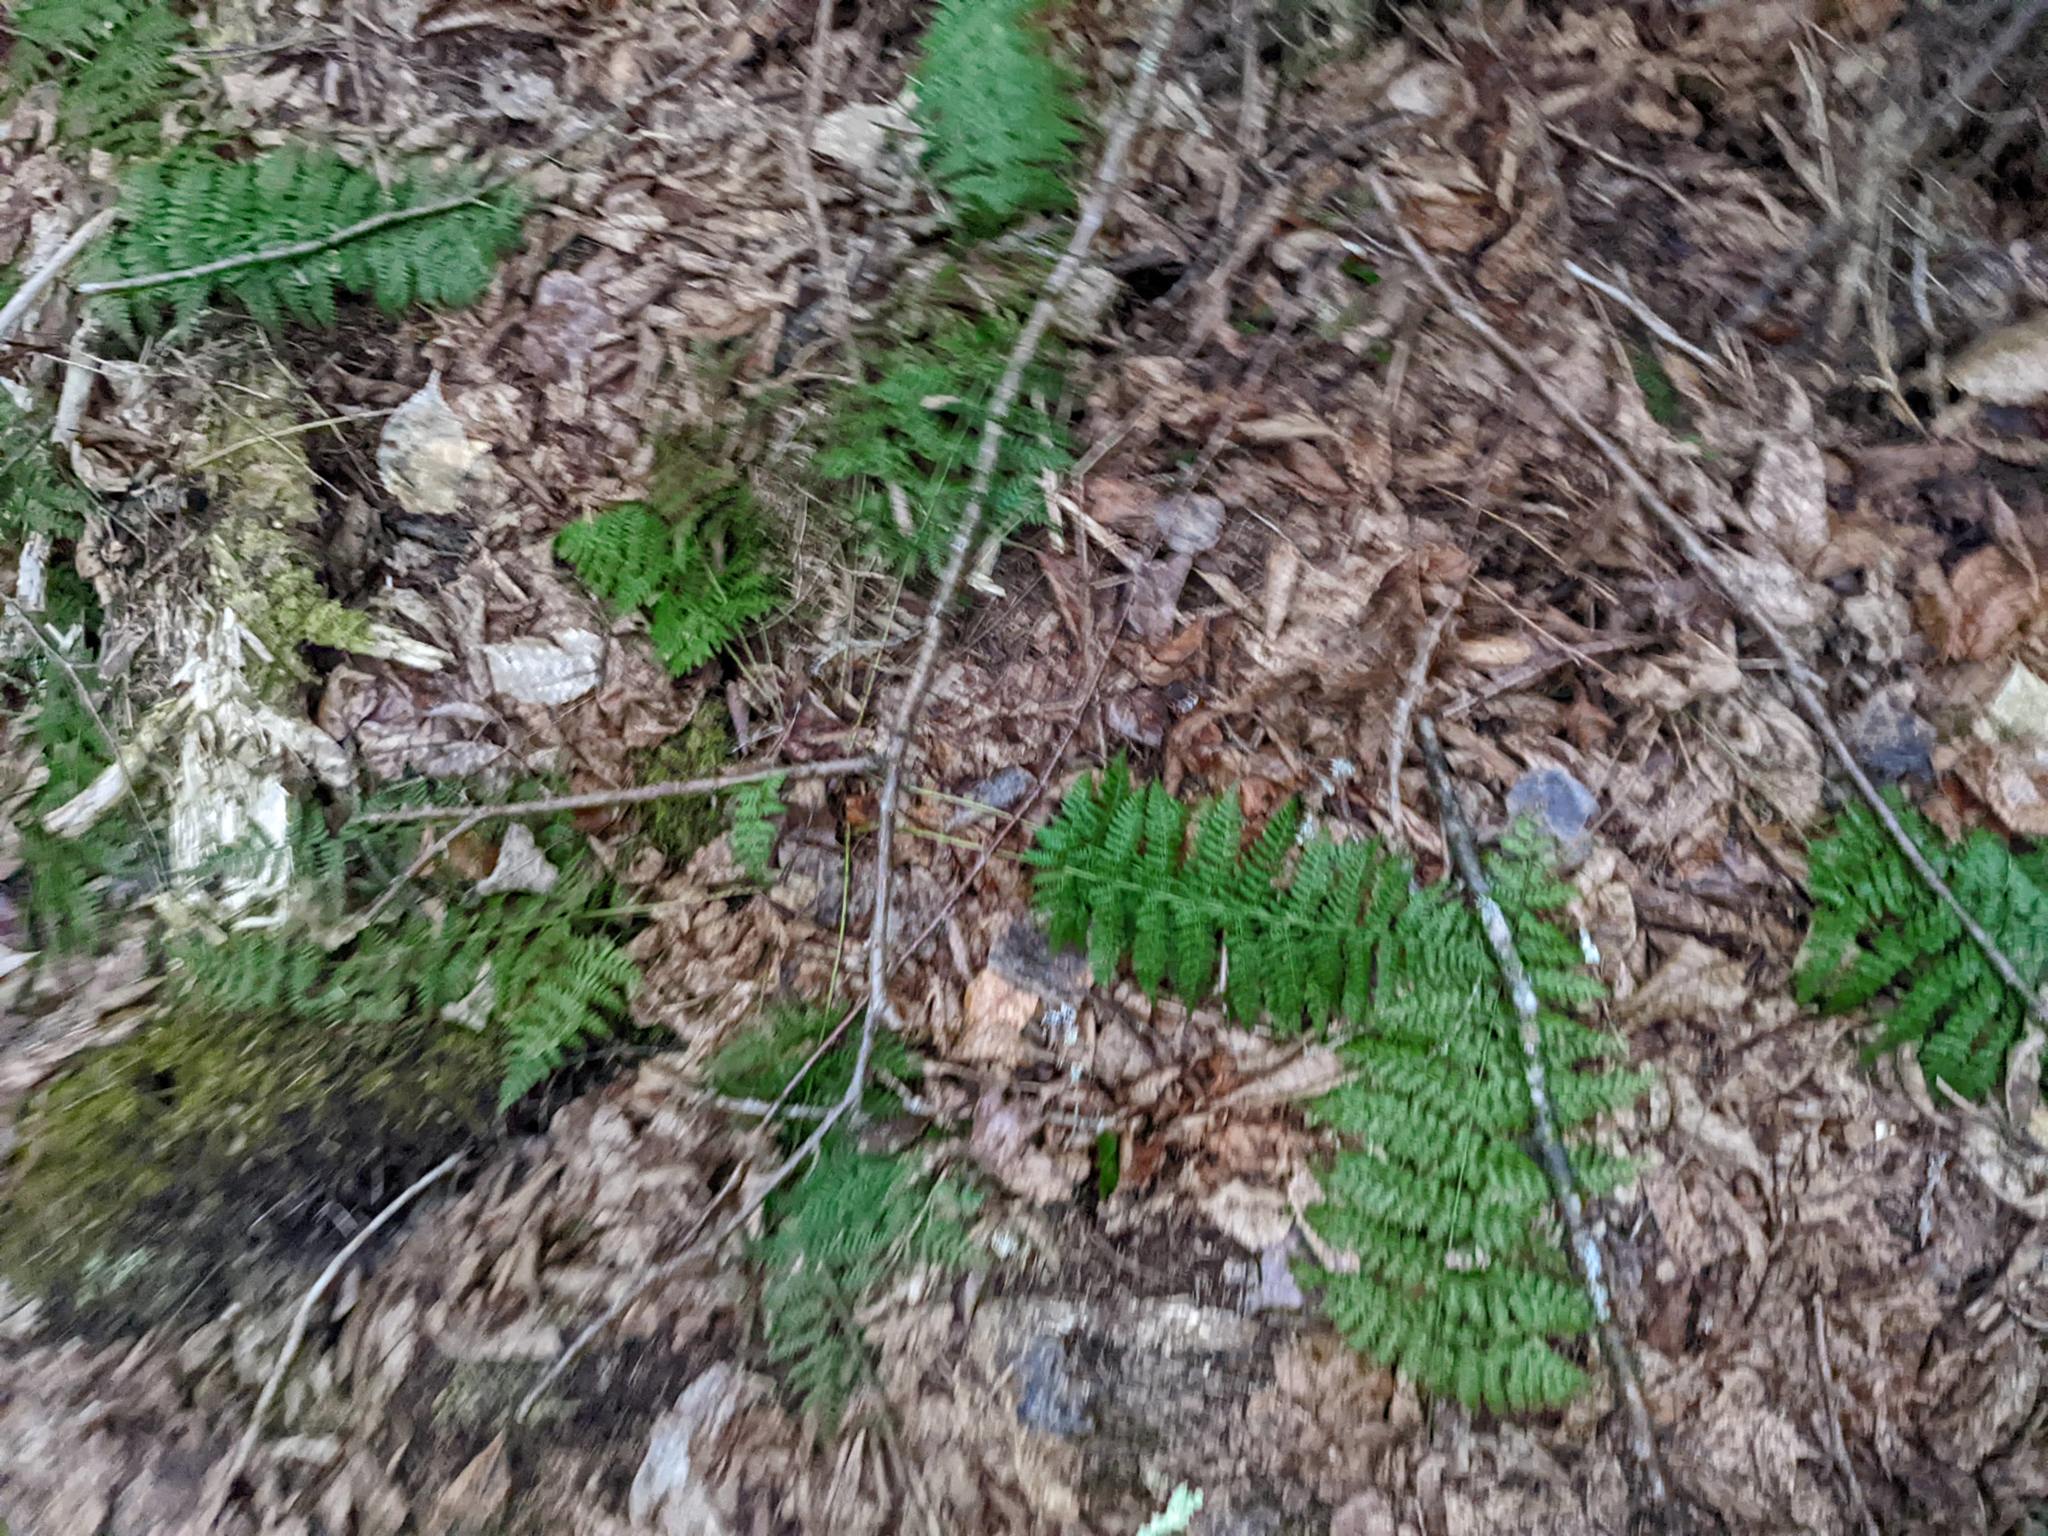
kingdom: Plantae
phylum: Tracheophyta
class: Polypodiopsida
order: Polypodiales
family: Dryopteridaceae
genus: Dryopteris
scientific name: Dryopteris intermedia
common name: Evergreen wood fern
